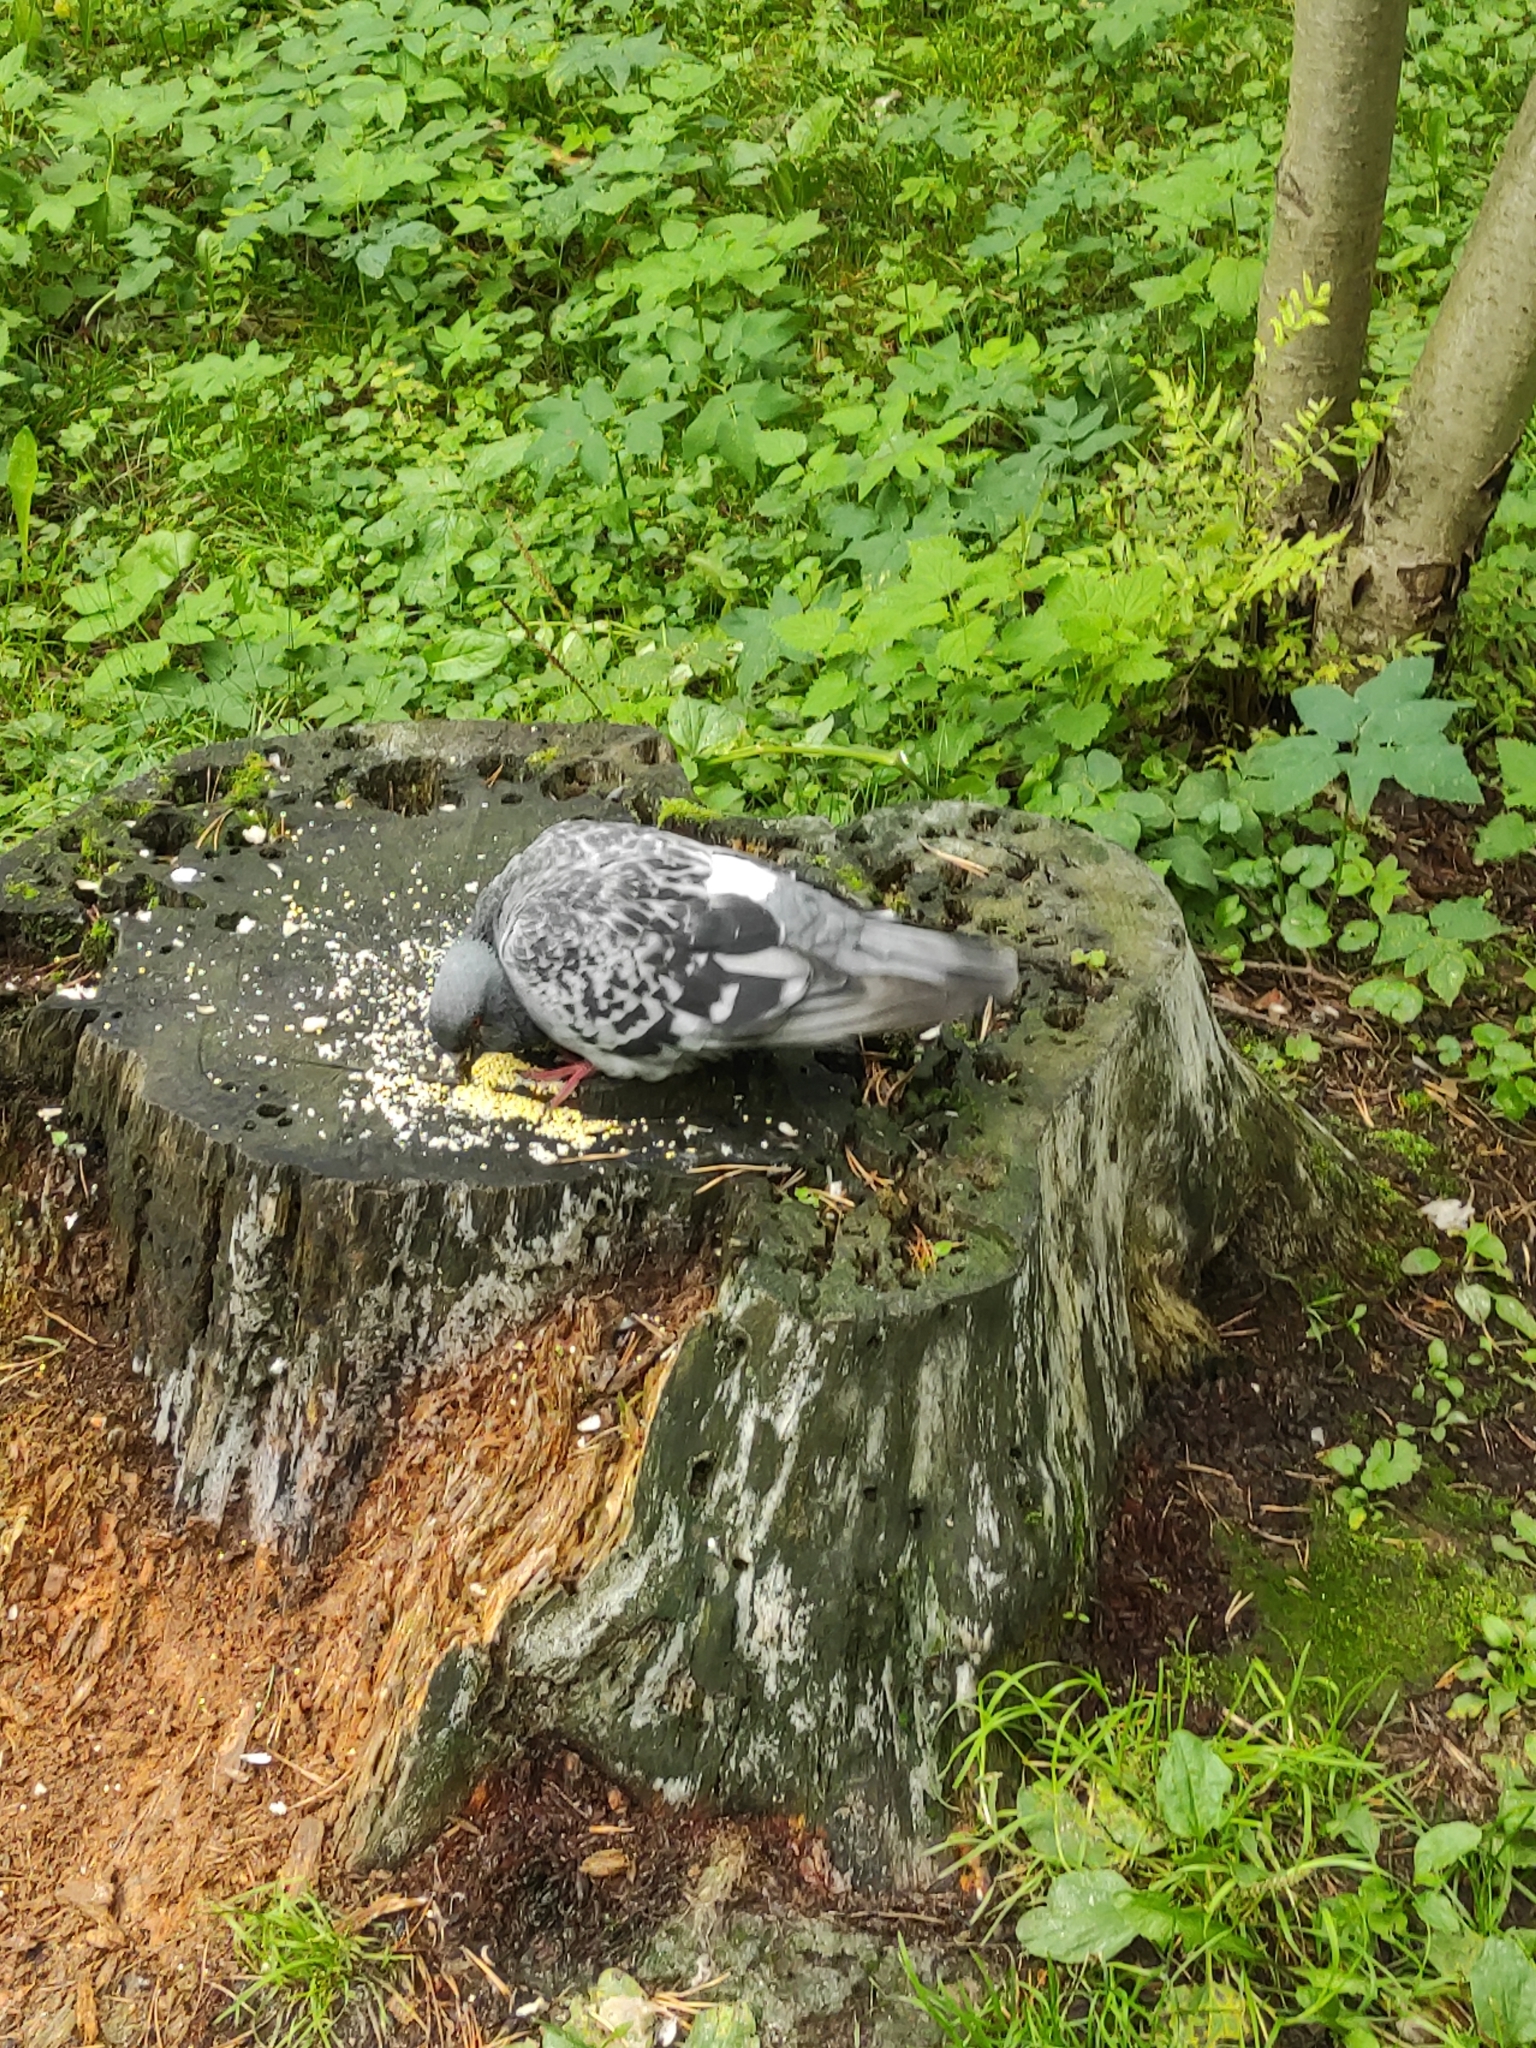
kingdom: Animalia
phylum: Chordata
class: Aves
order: Columbiformes
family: Columbidae
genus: Columba
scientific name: Columba livia
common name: Rock pigeon
